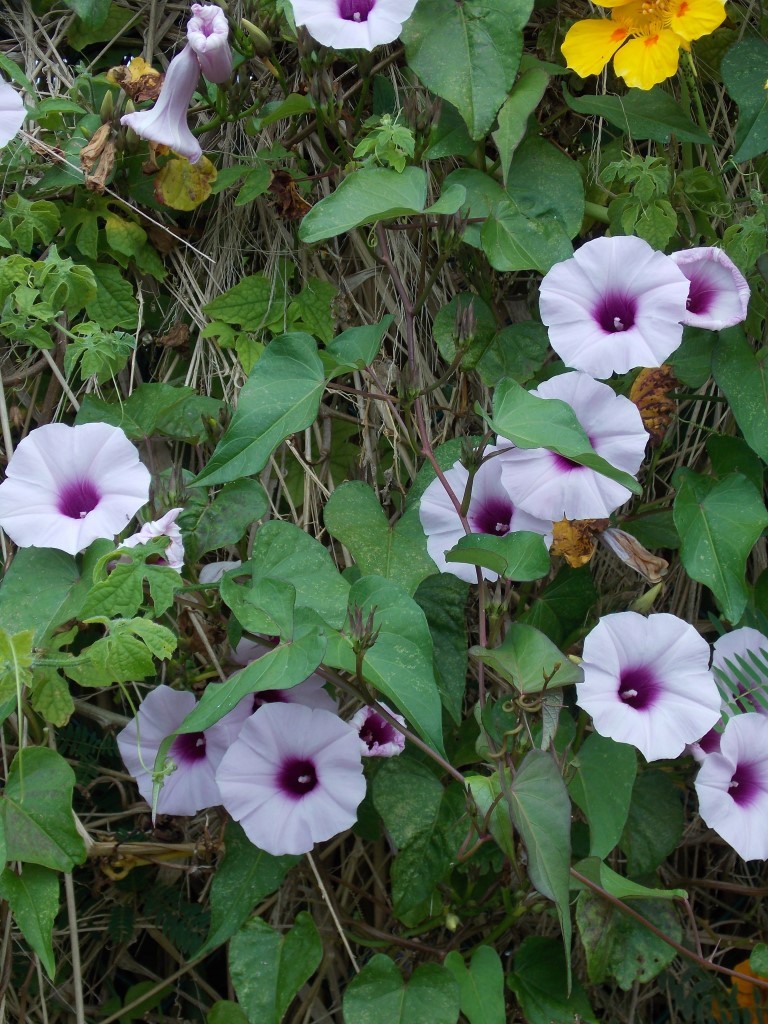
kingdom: Plantae
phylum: Tracheophyta
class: Magnoliopsida
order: Solanales
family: Convolvulaceae
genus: Ipomoea
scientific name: Ipomoea batatas
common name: Sweet-potato
